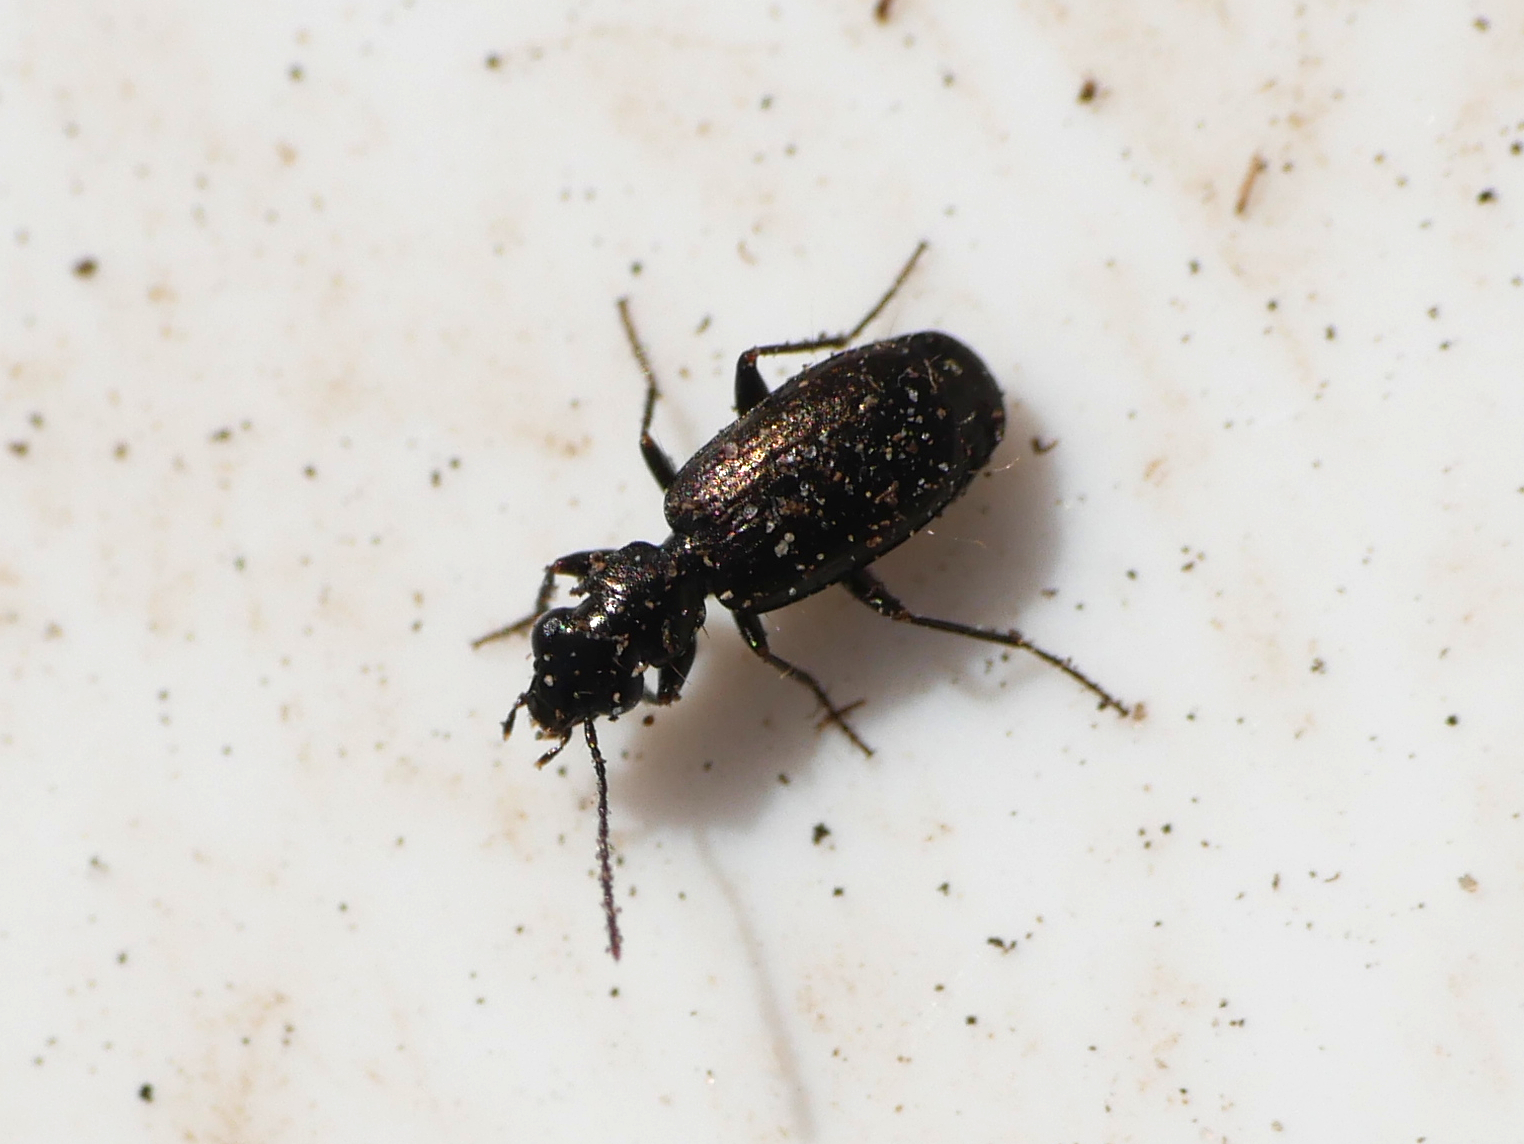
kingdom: Animalia
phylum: Arthropoda
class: Insecta
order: Coleoptera
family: Carabidae
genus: Syntomus
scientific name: Syntomus foveatus
